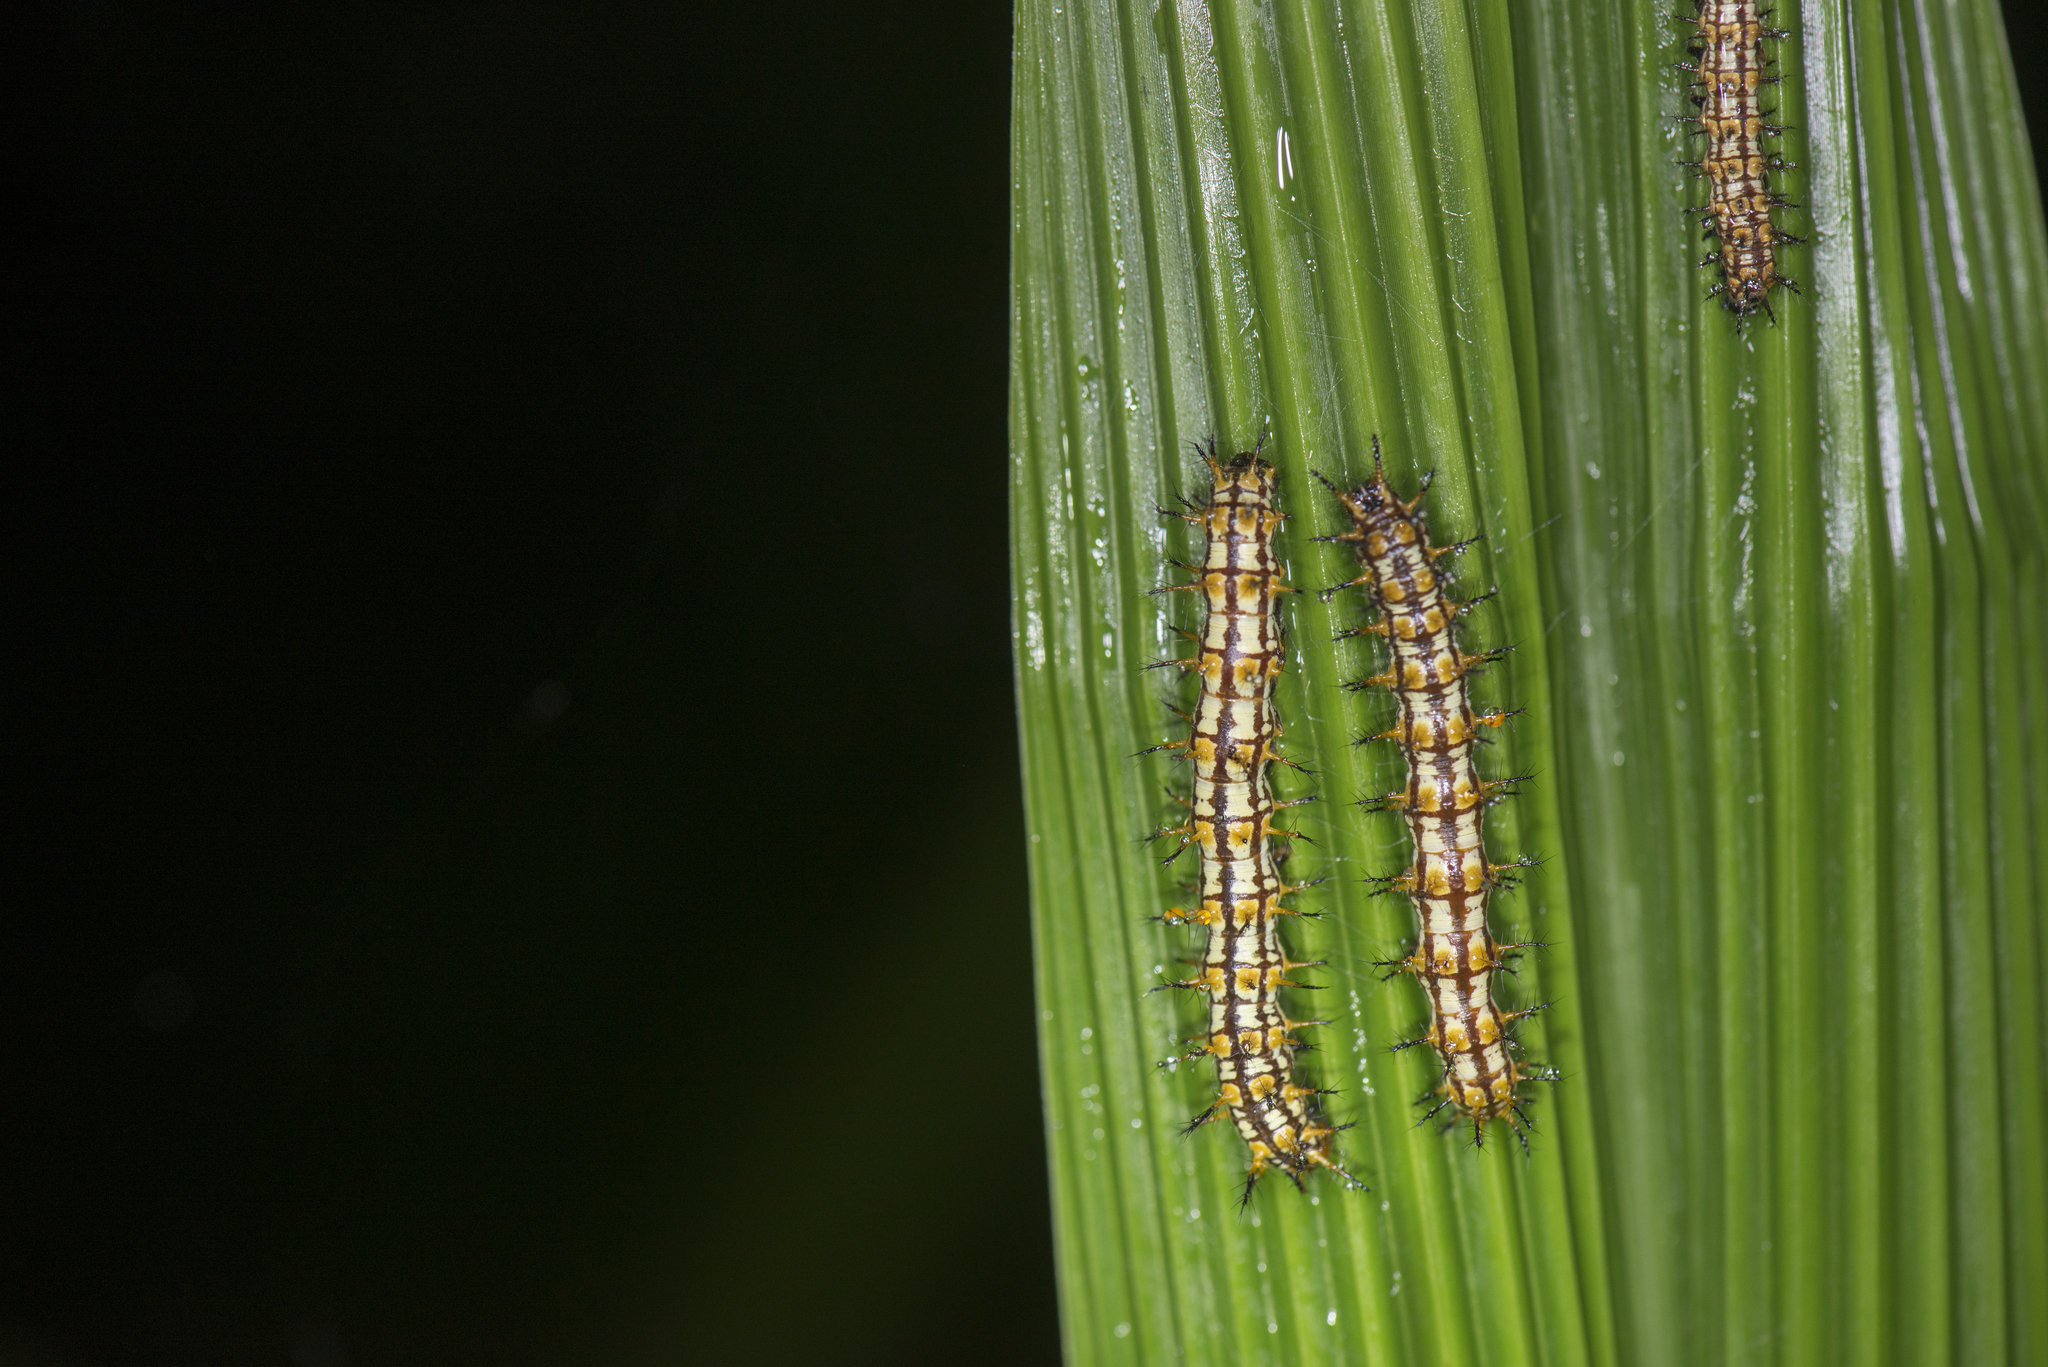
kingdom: Animalia
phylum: Arthropoda
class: Insecta
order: Lepidoptera
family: Nymphalidae
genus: Acraea
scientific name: Acraea Telchinia issoria
